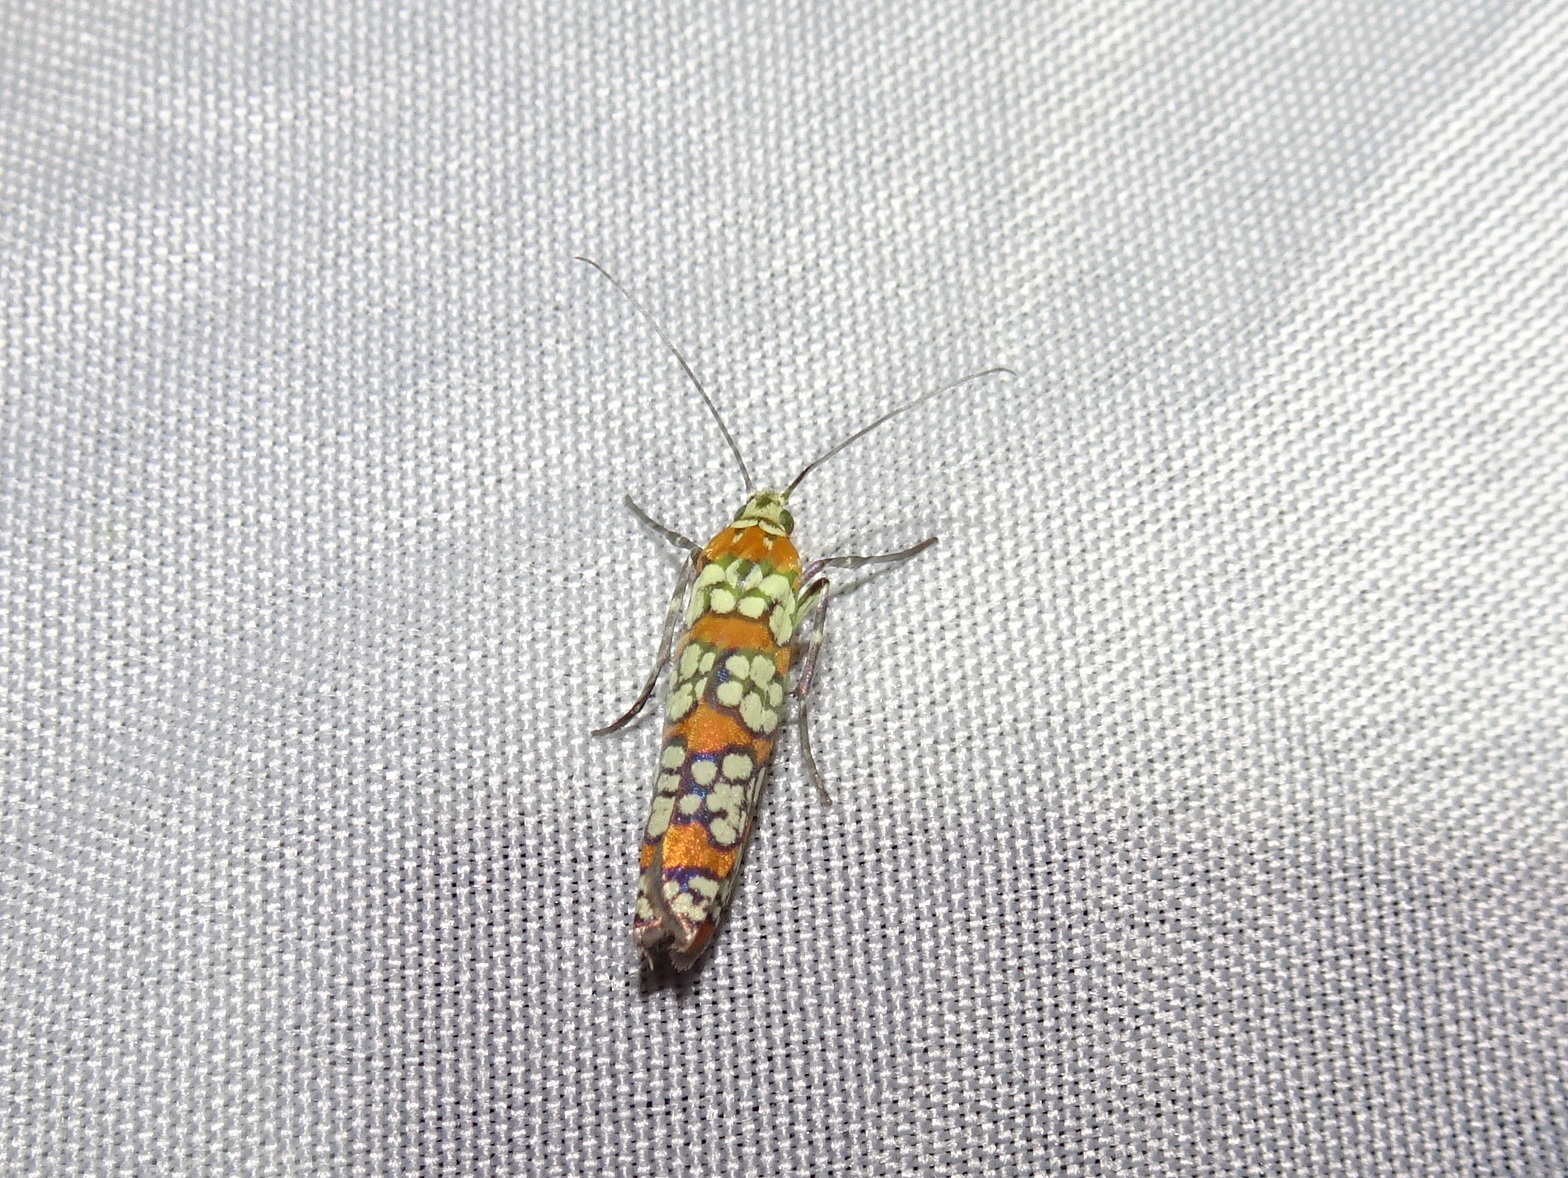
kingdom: Animalia
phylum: Arthropoda
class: Insecta
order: Lepidoptera
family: Attevidae
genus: Atteva
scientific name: Atteva punctella
